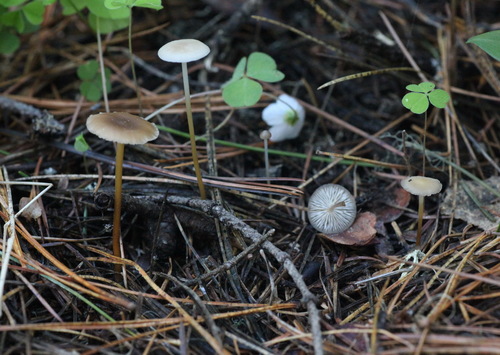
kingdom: Fungi
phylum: Basidiomycota
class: Agaricomycetes
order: Agaricales
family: Physalacriaceae
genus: Strobilurus
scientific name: Strobilurus stephanocystis
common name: Russian conecap
